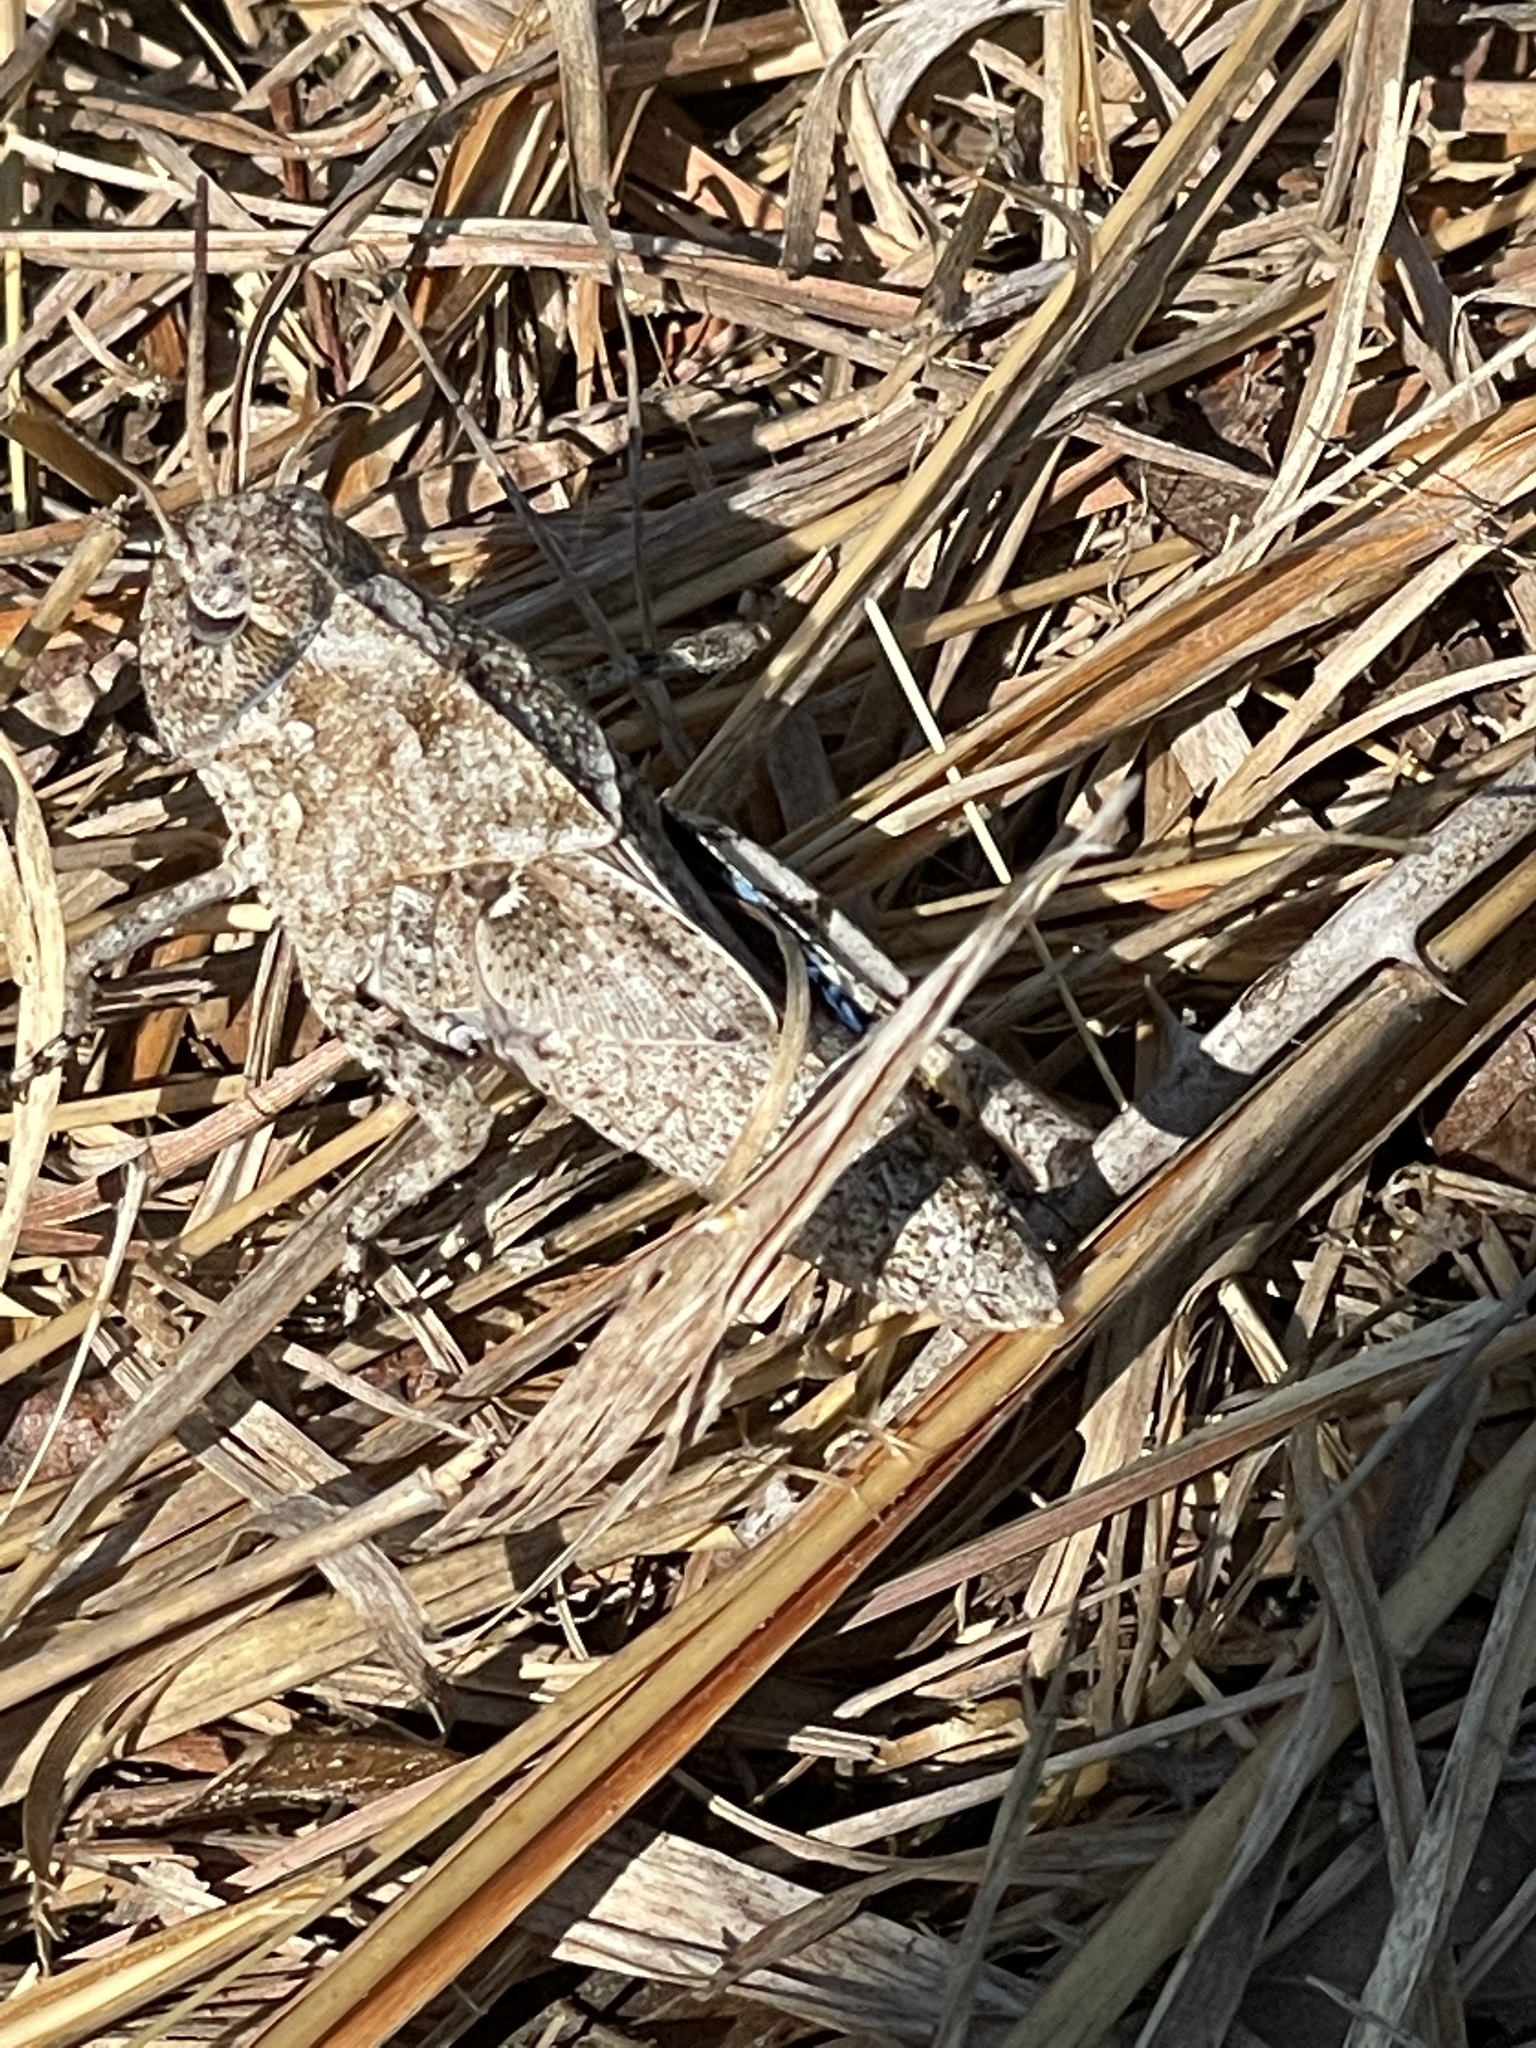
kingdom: Animalia
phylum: Arthropoda
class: Insecta
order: Orthoptera
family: Acrididae
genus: Pardalophora
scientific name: Pardalophora phoenicoptera
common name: Orange-winged grasshopper
